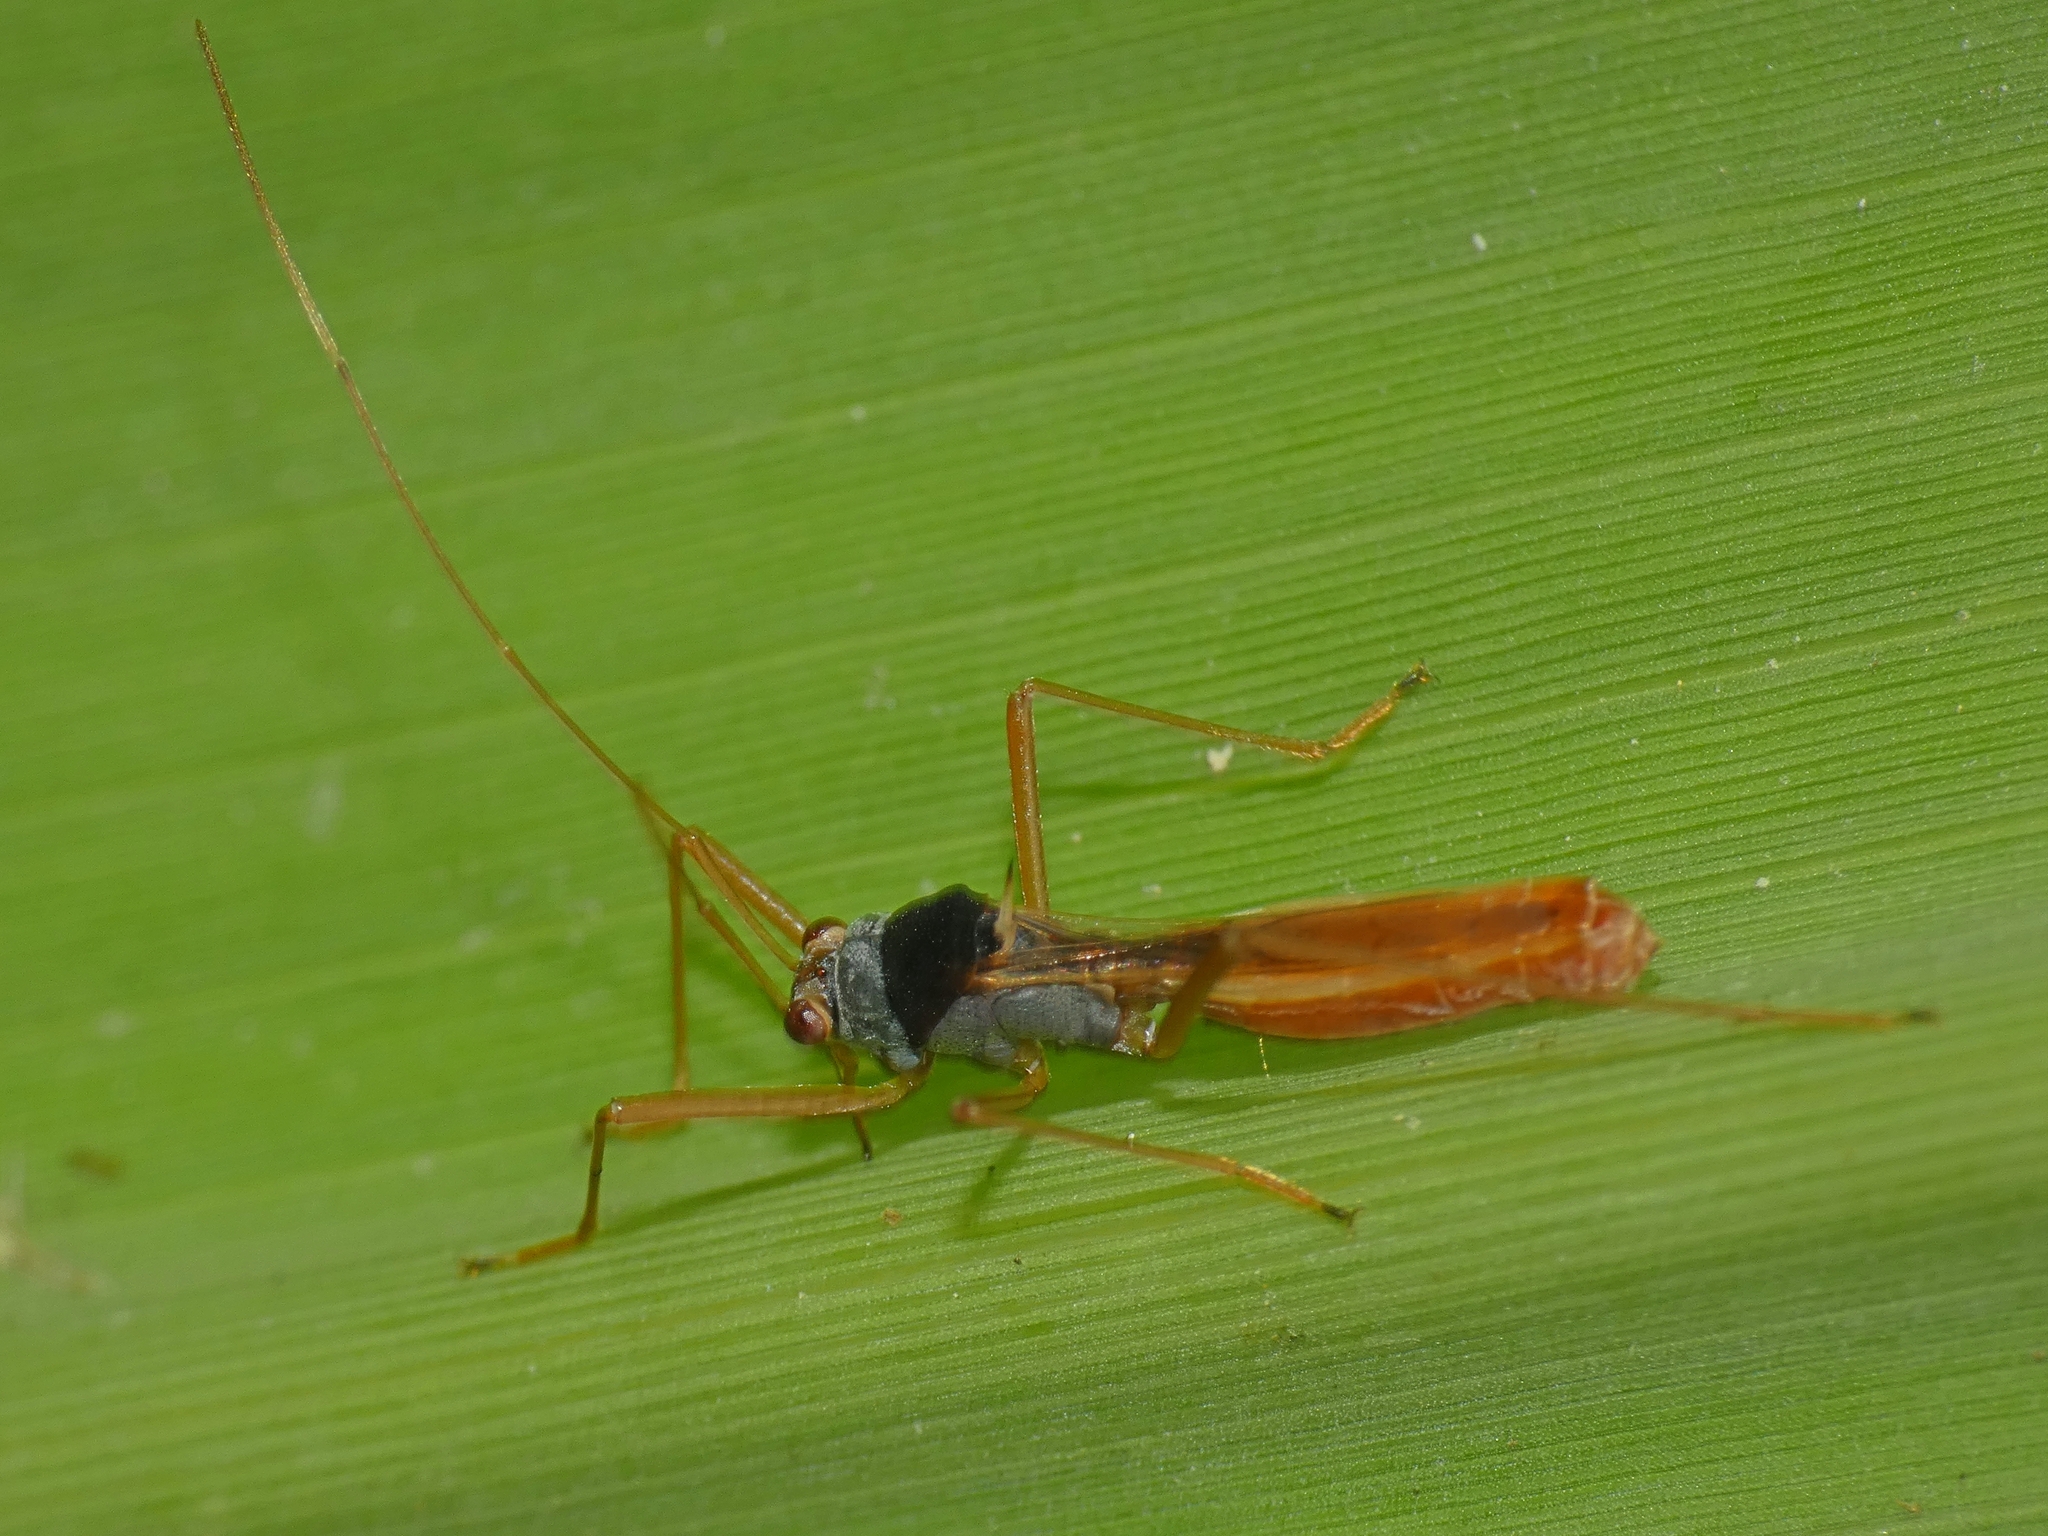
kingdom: Animalia
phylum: Arthropoda
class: Insecta
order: Hemiptera
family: Colobathristidae
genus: Phaenacantha
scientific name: Phaenacantha australiae
